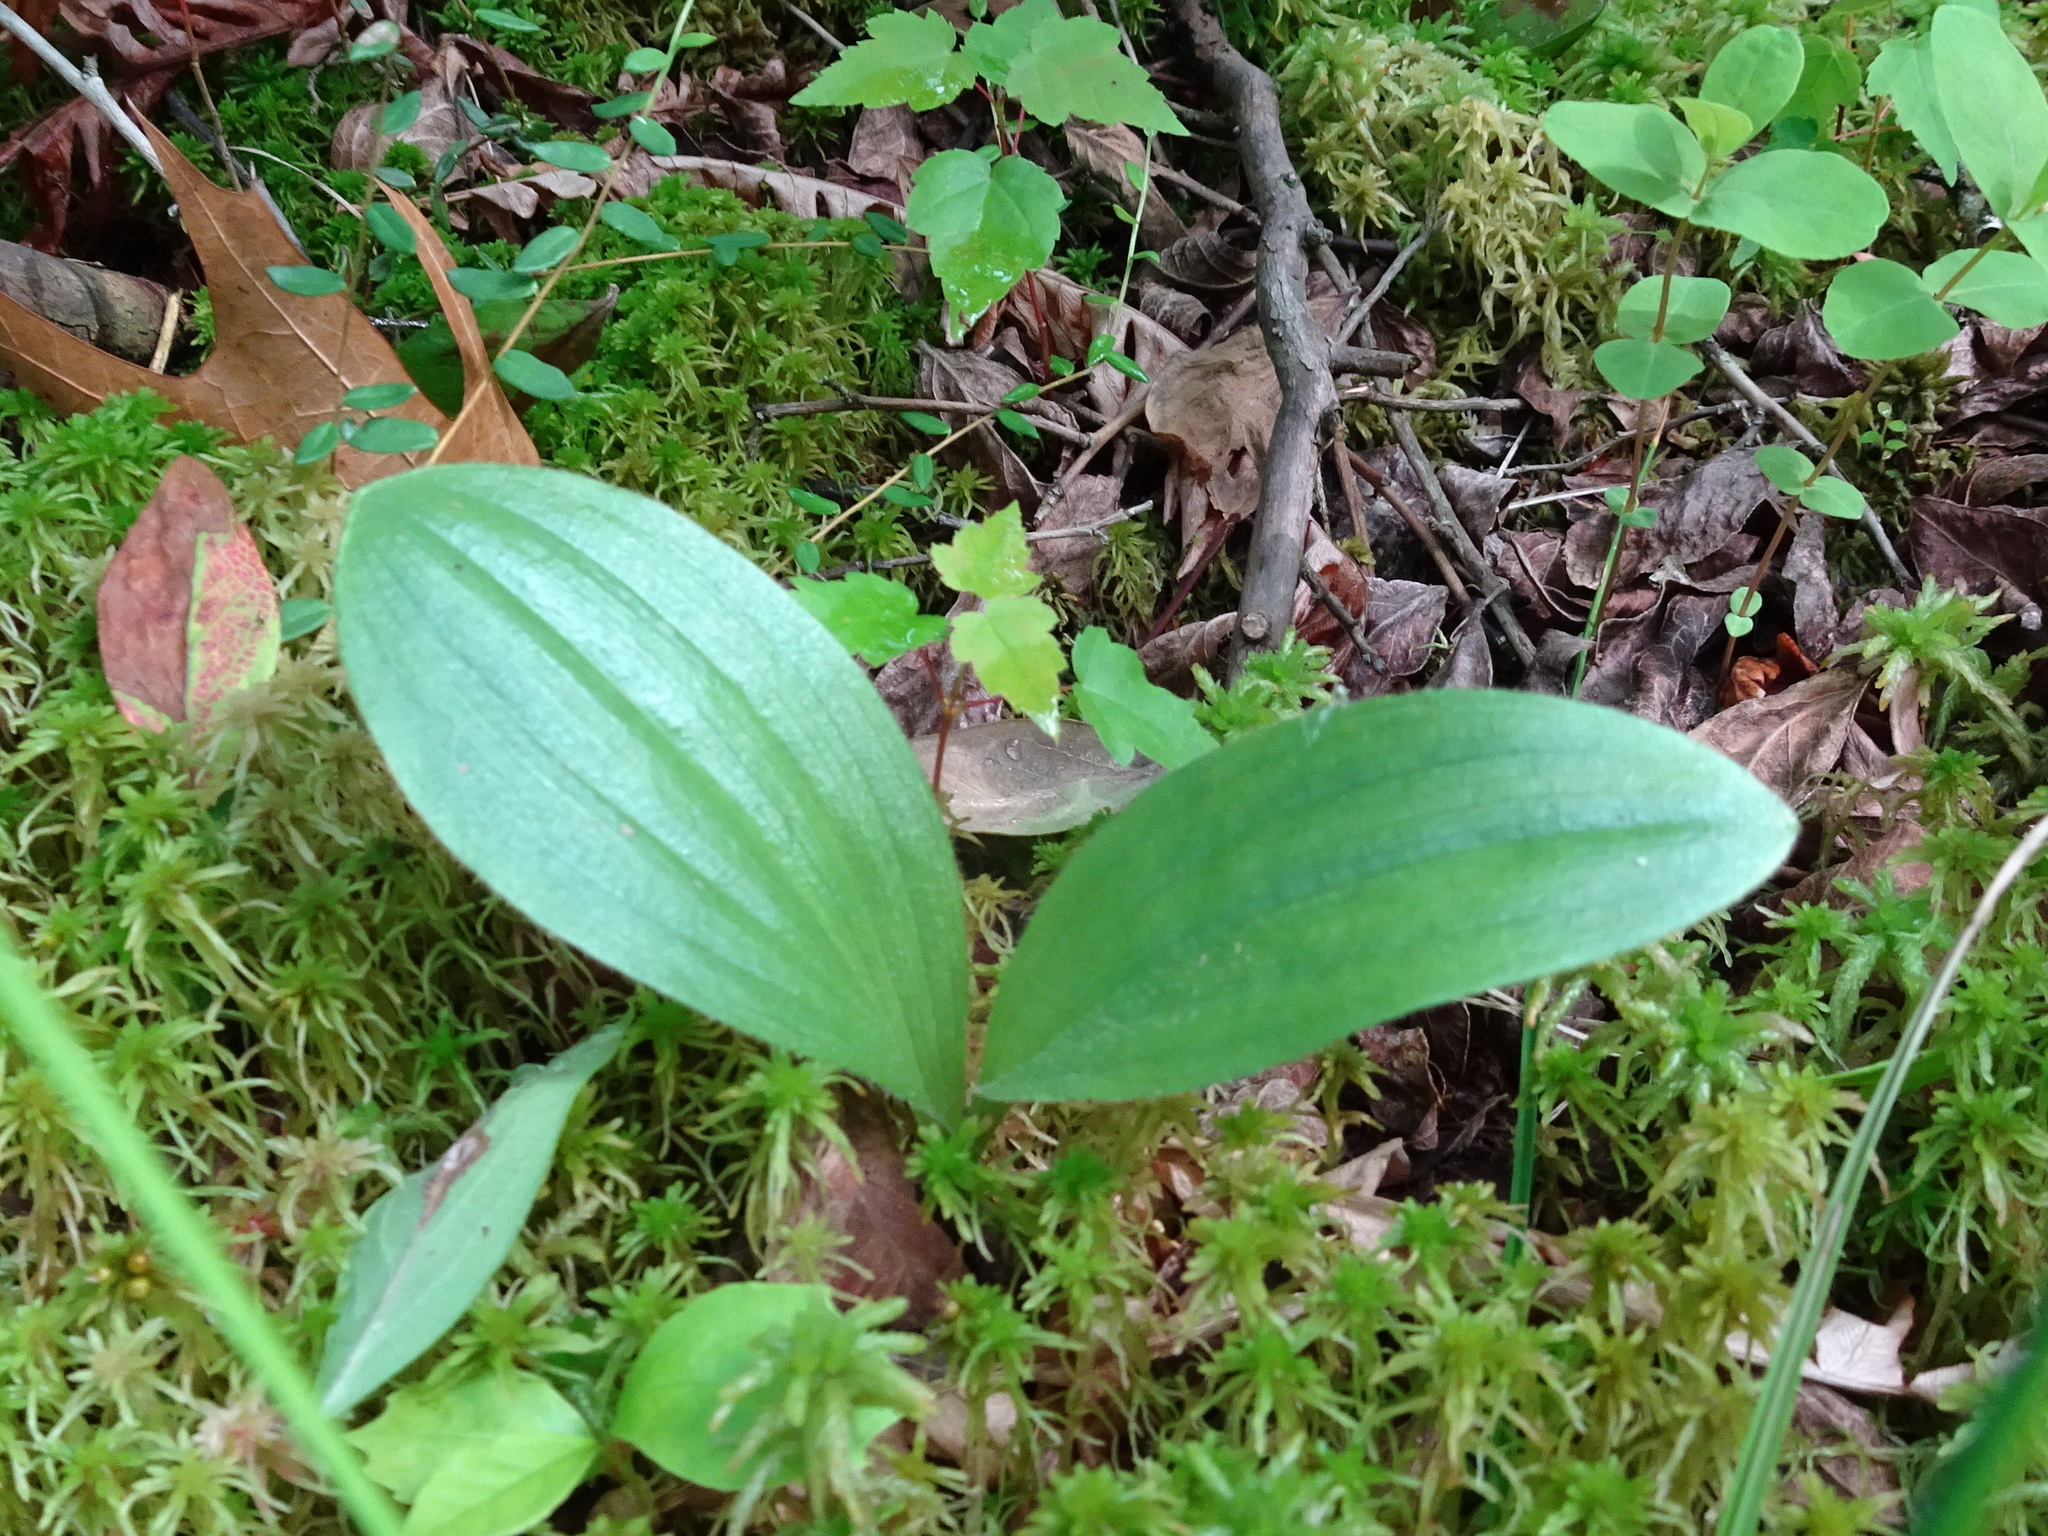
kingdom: Plantae
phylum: Tracheophyta
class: Liliopsida
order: Asparagales
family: Orchidaceae
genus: Cypripedium
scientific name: Cypripedium acaule
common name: Pink lady's-slipper
